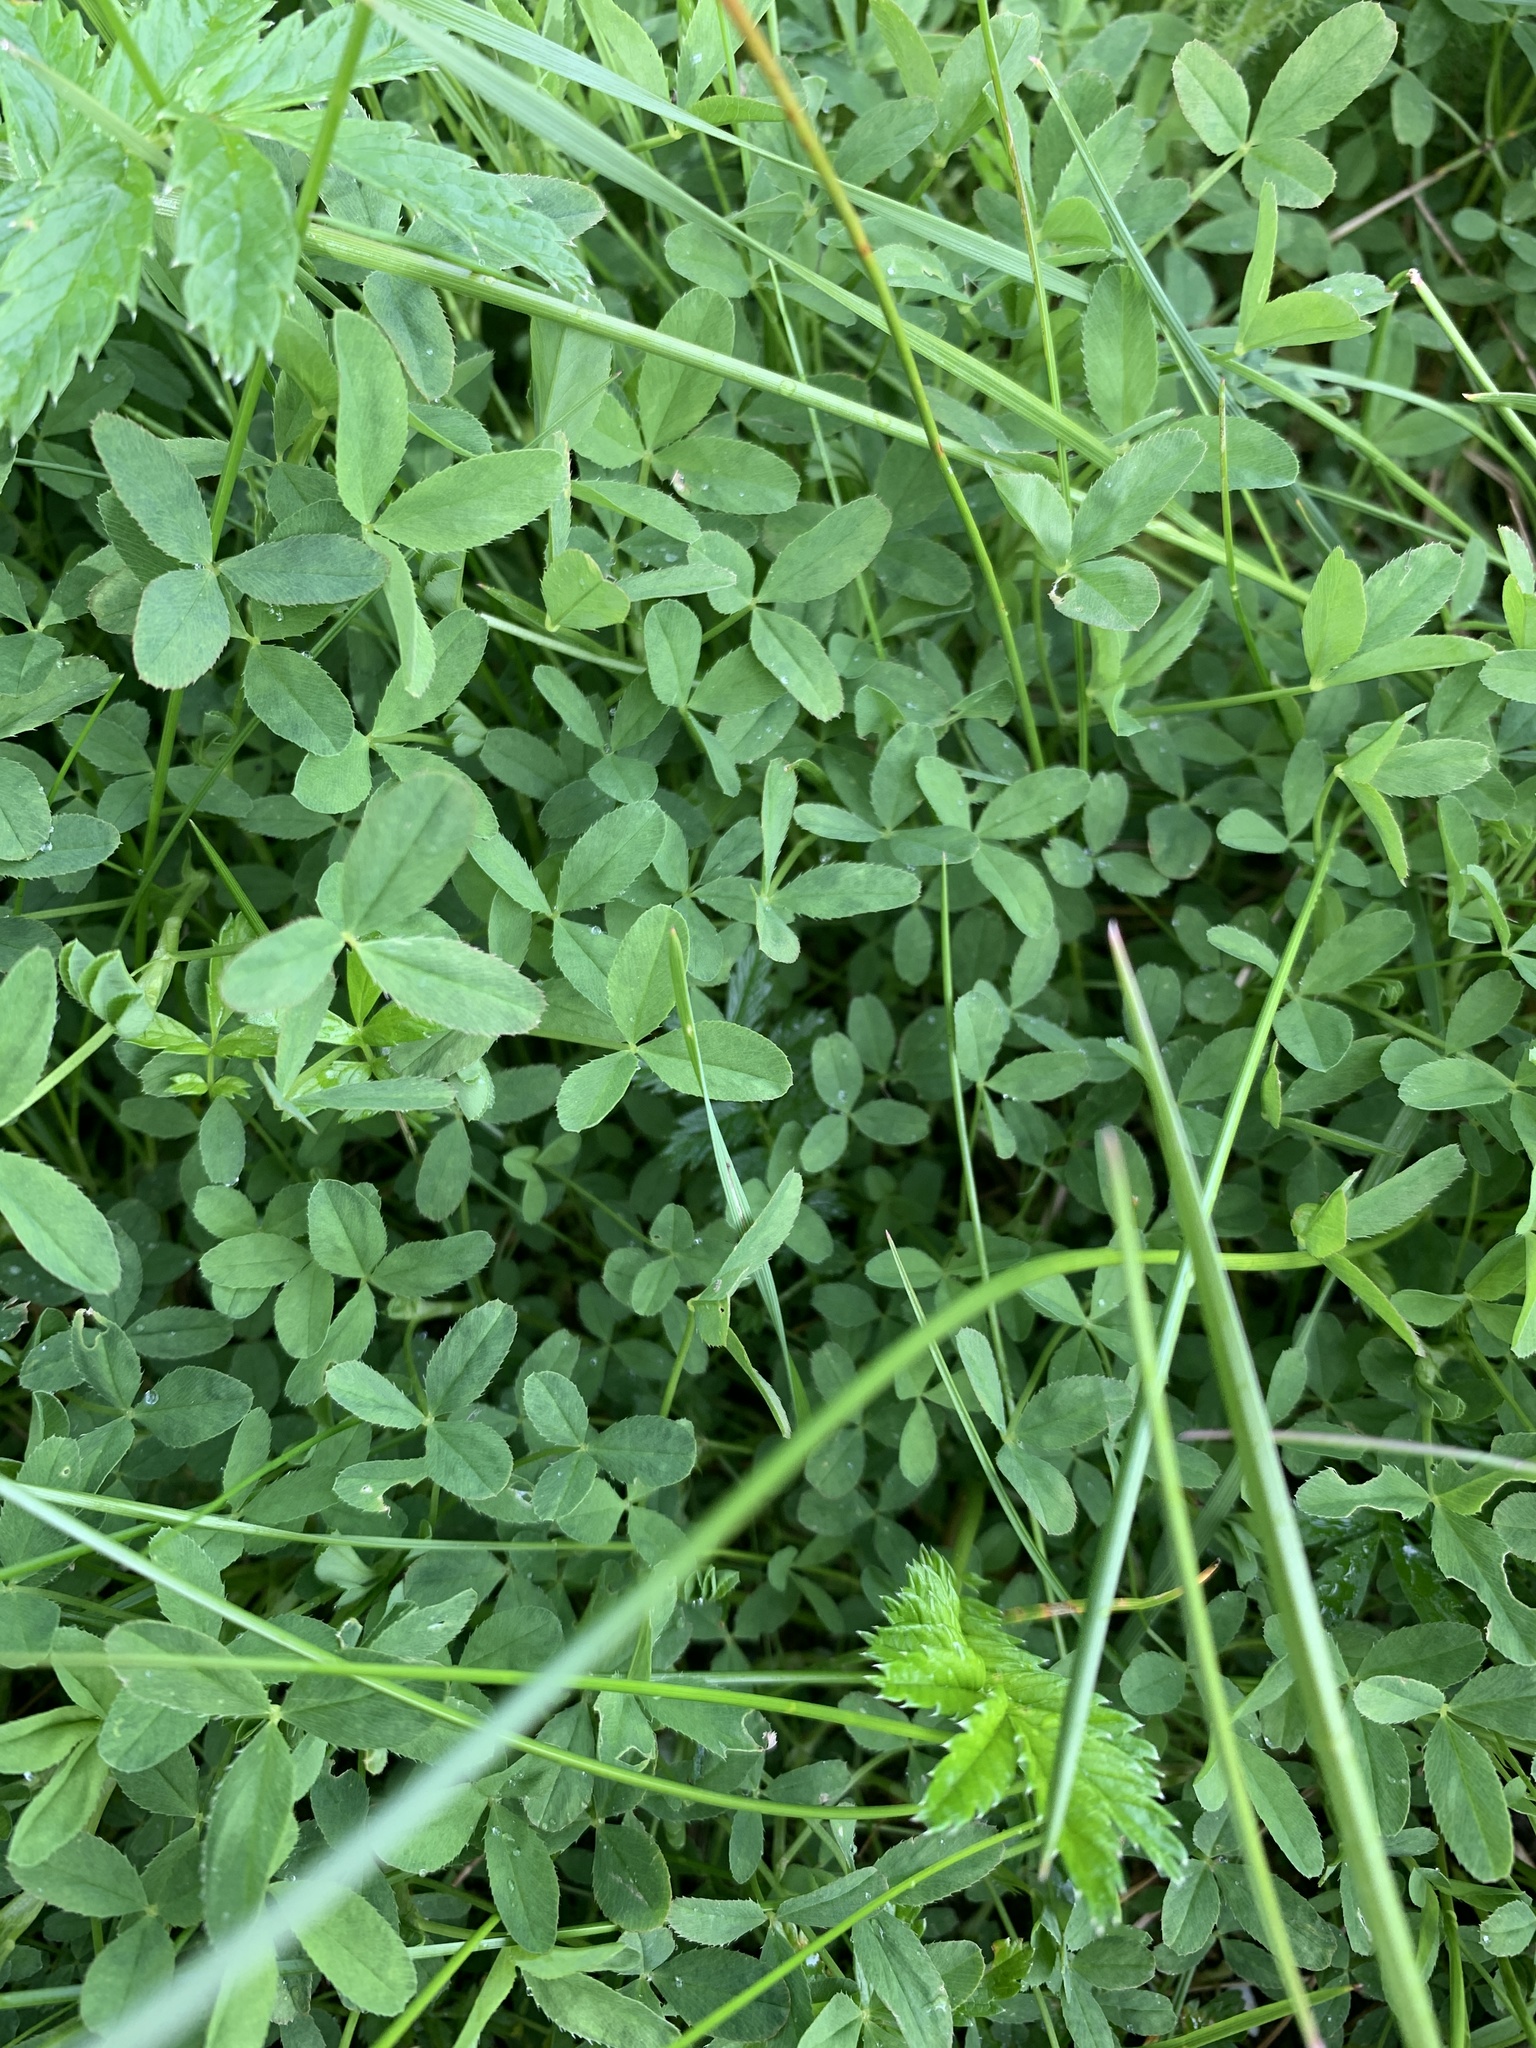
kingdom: Plantae
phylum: Tracheophyta
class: Magnoliopsida
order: Fabales
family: Fabaceae
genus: Trifolium
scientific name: Trifolium wormskioldii
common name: Springbank clover
